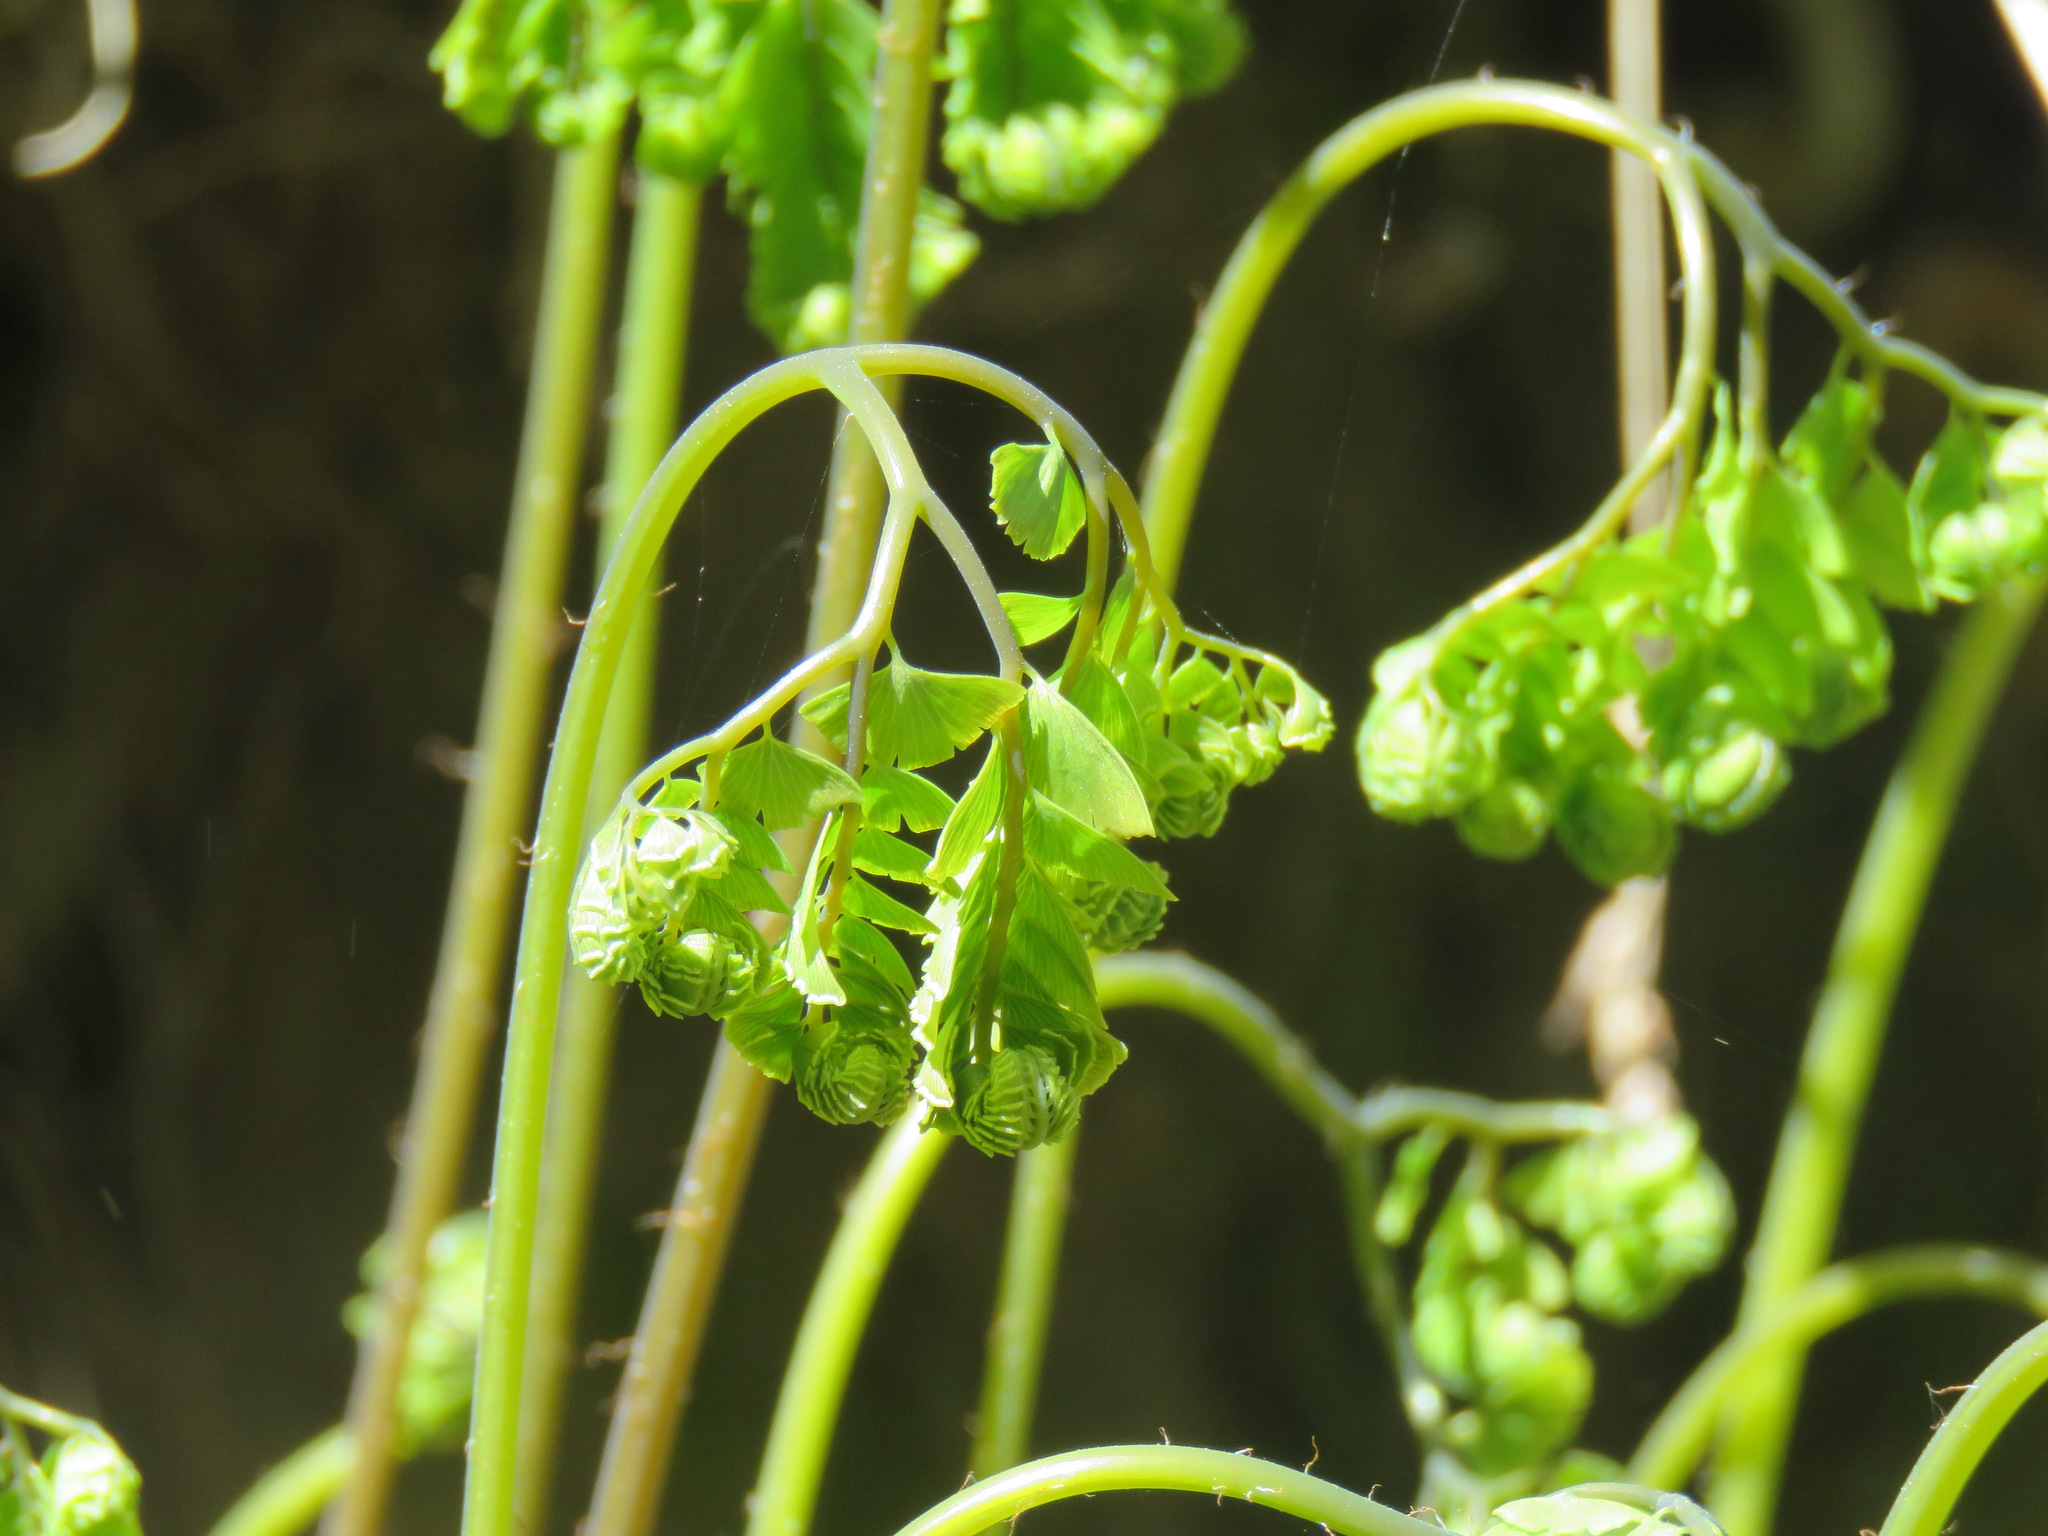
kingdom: Plantae
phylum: Tracheophyta
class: Polypodiopsida
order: Polypodiales
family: Pteridaceae
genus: Adiantum
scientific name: Adiantum aleuticum
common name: Aleutian maidenhair fern
